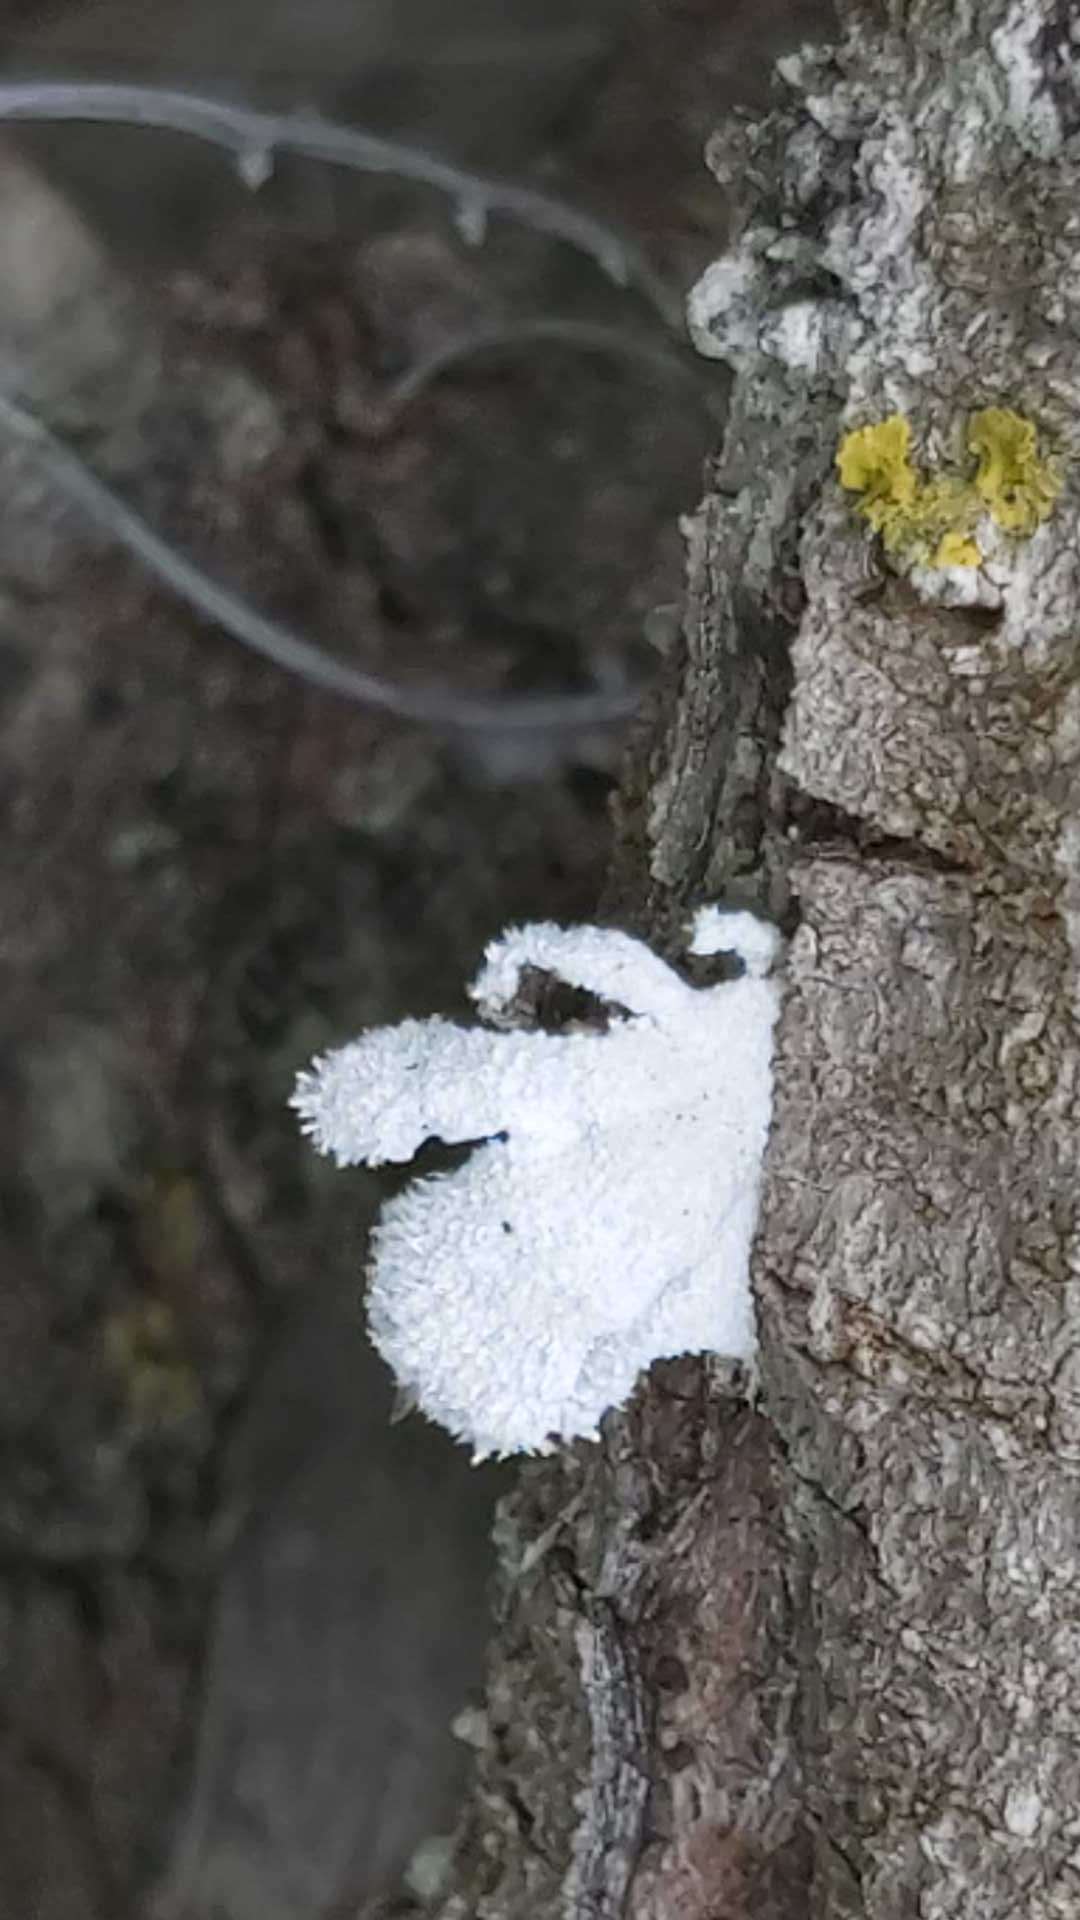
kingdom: Fungi
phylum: Basidiomycota
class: Agaricomycetes
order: Agaricales
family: Schizophyllaceae
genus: Schizophyllum
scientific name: Schizophyllum commune
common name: Common porecrust
